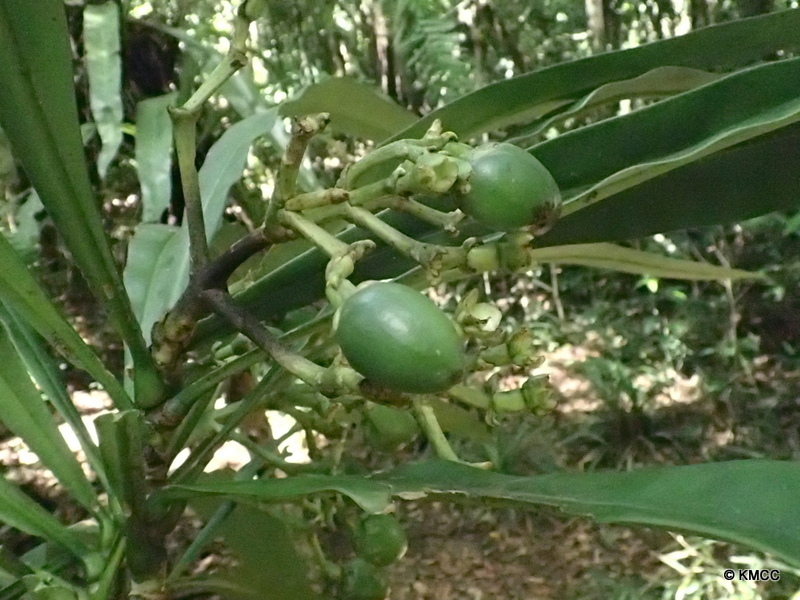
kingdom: Plantae
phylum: Tracheophyta
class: Magnoliopsida
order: Gentianales
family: Gentianaceae
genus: Anthocleista
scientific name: Anthocleista longifolia
